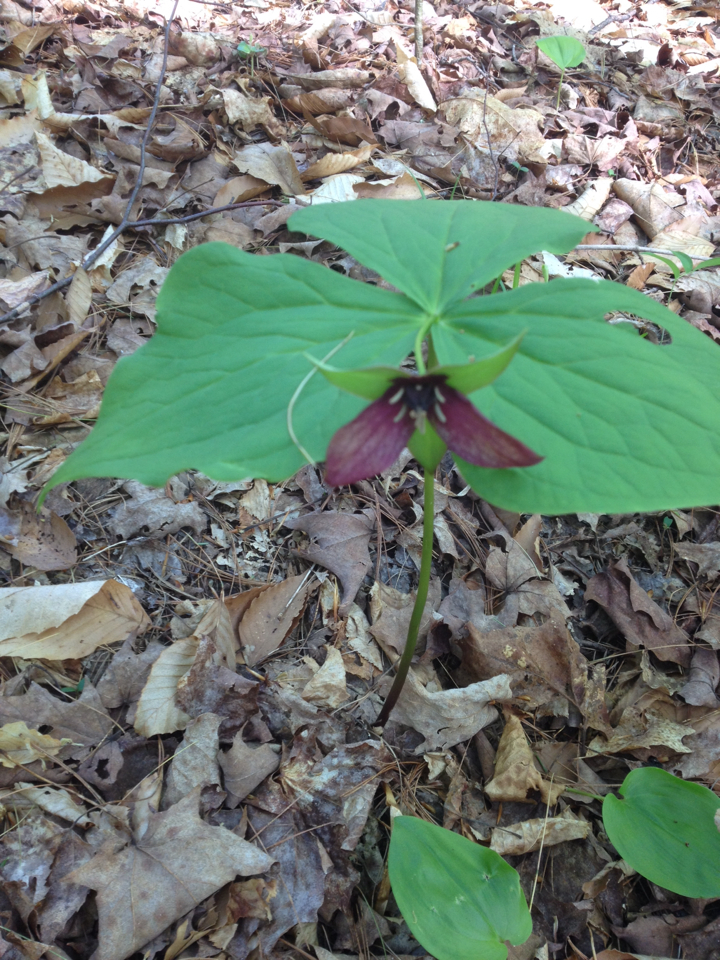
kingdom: Plantae
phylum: Tracheophyta
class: Liliopsida
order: Liliales
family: Melanthiaceae
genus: Trillium
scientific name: Trillium erectum
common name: Purple trillium
